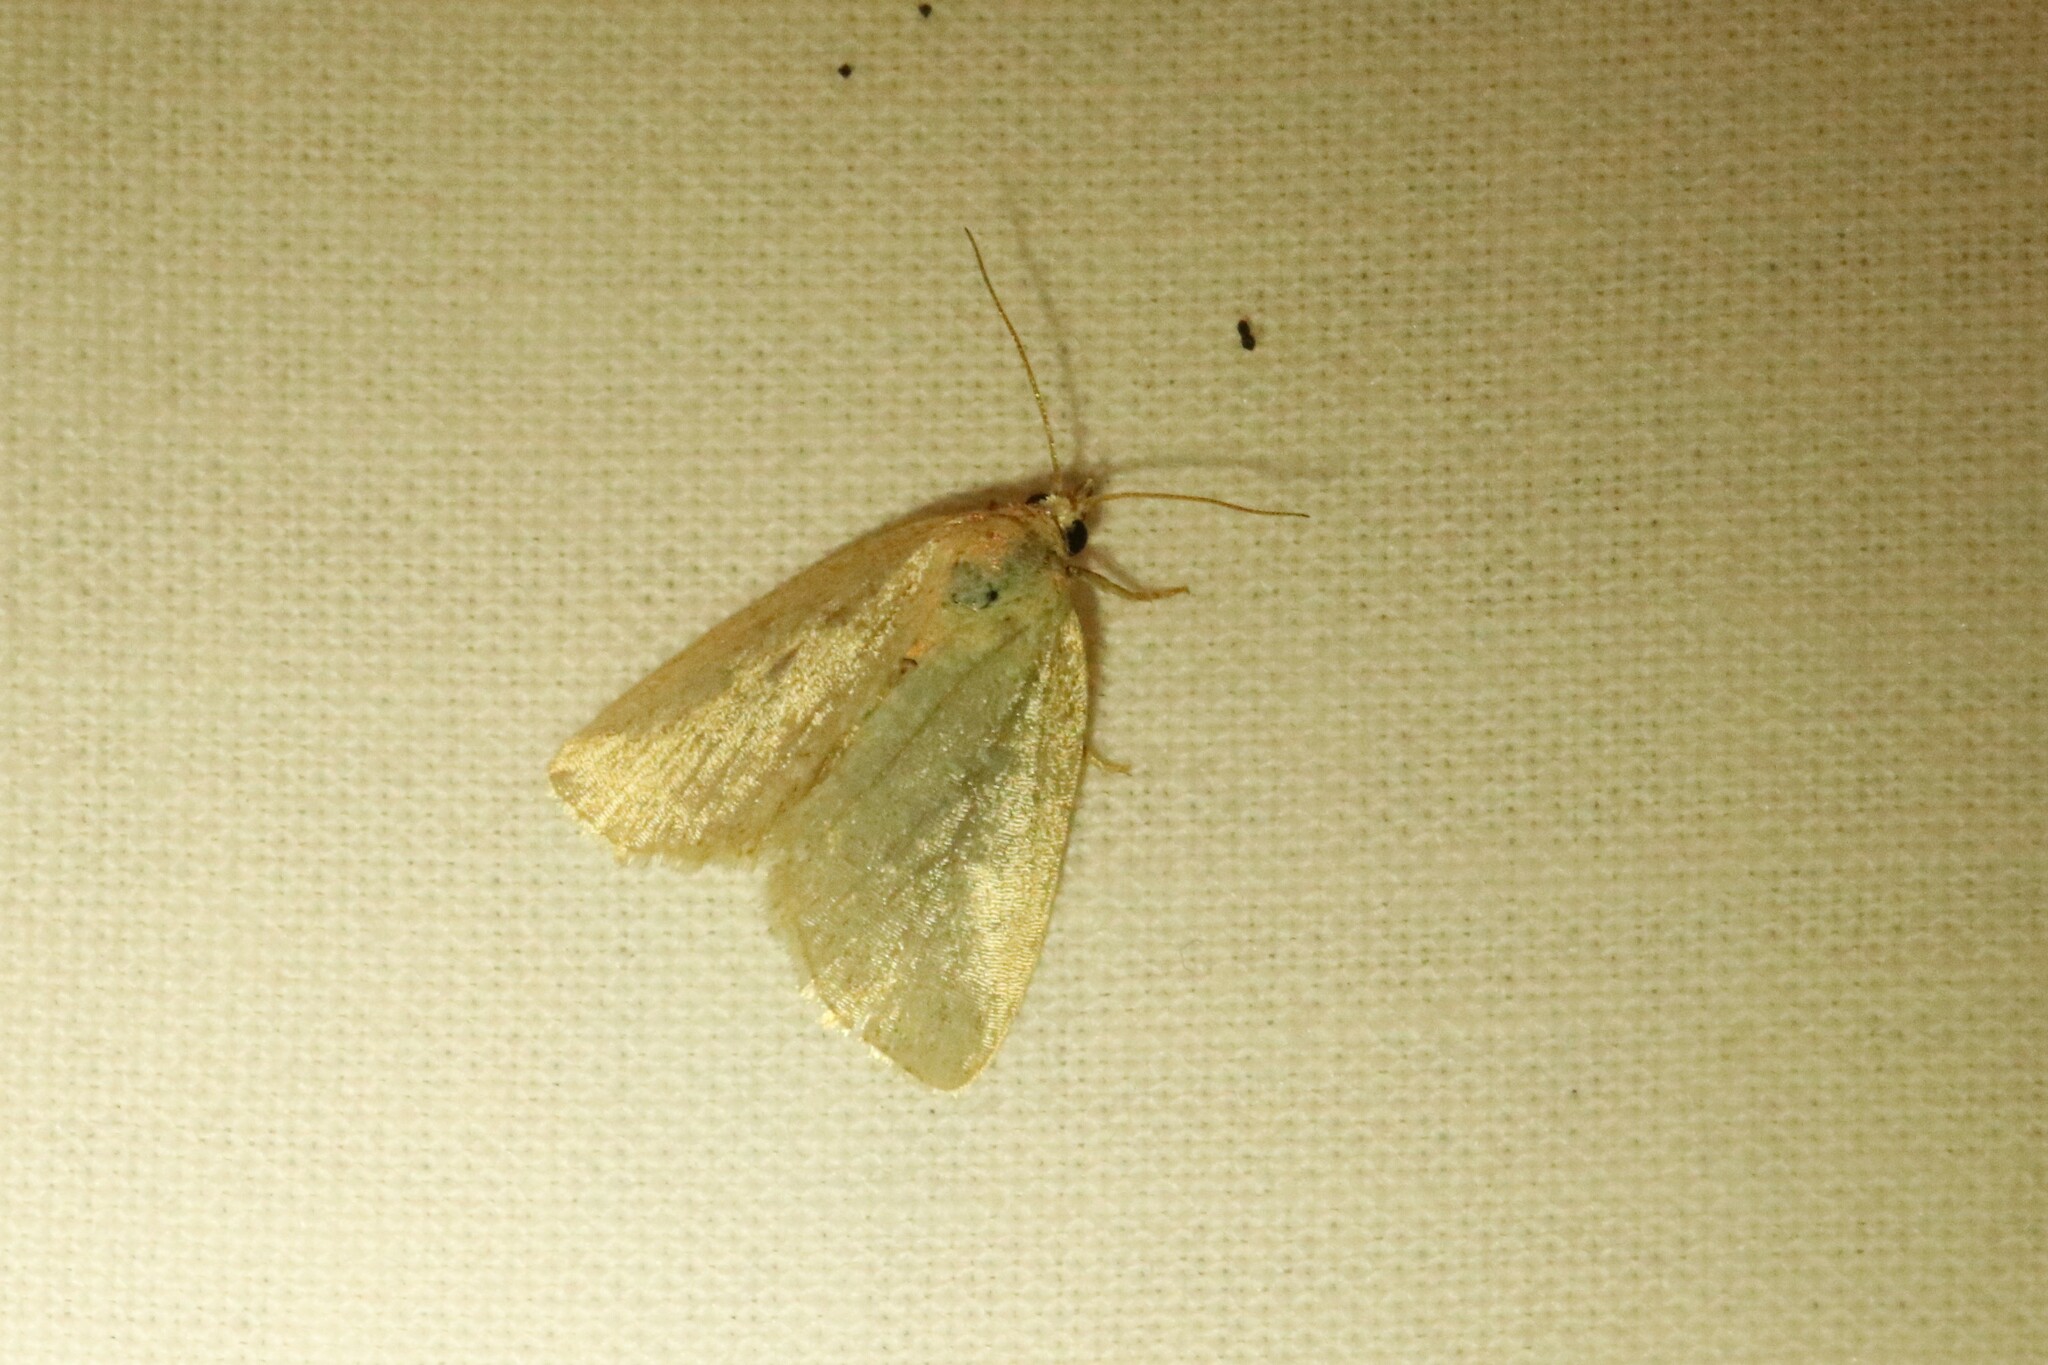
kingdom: Animalia
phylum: Arthropoda
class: Insecta
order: Lepidoptera
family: Noctuidae
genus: Protodeltote
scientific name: Protodeltote albidula
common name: Pale glyph
